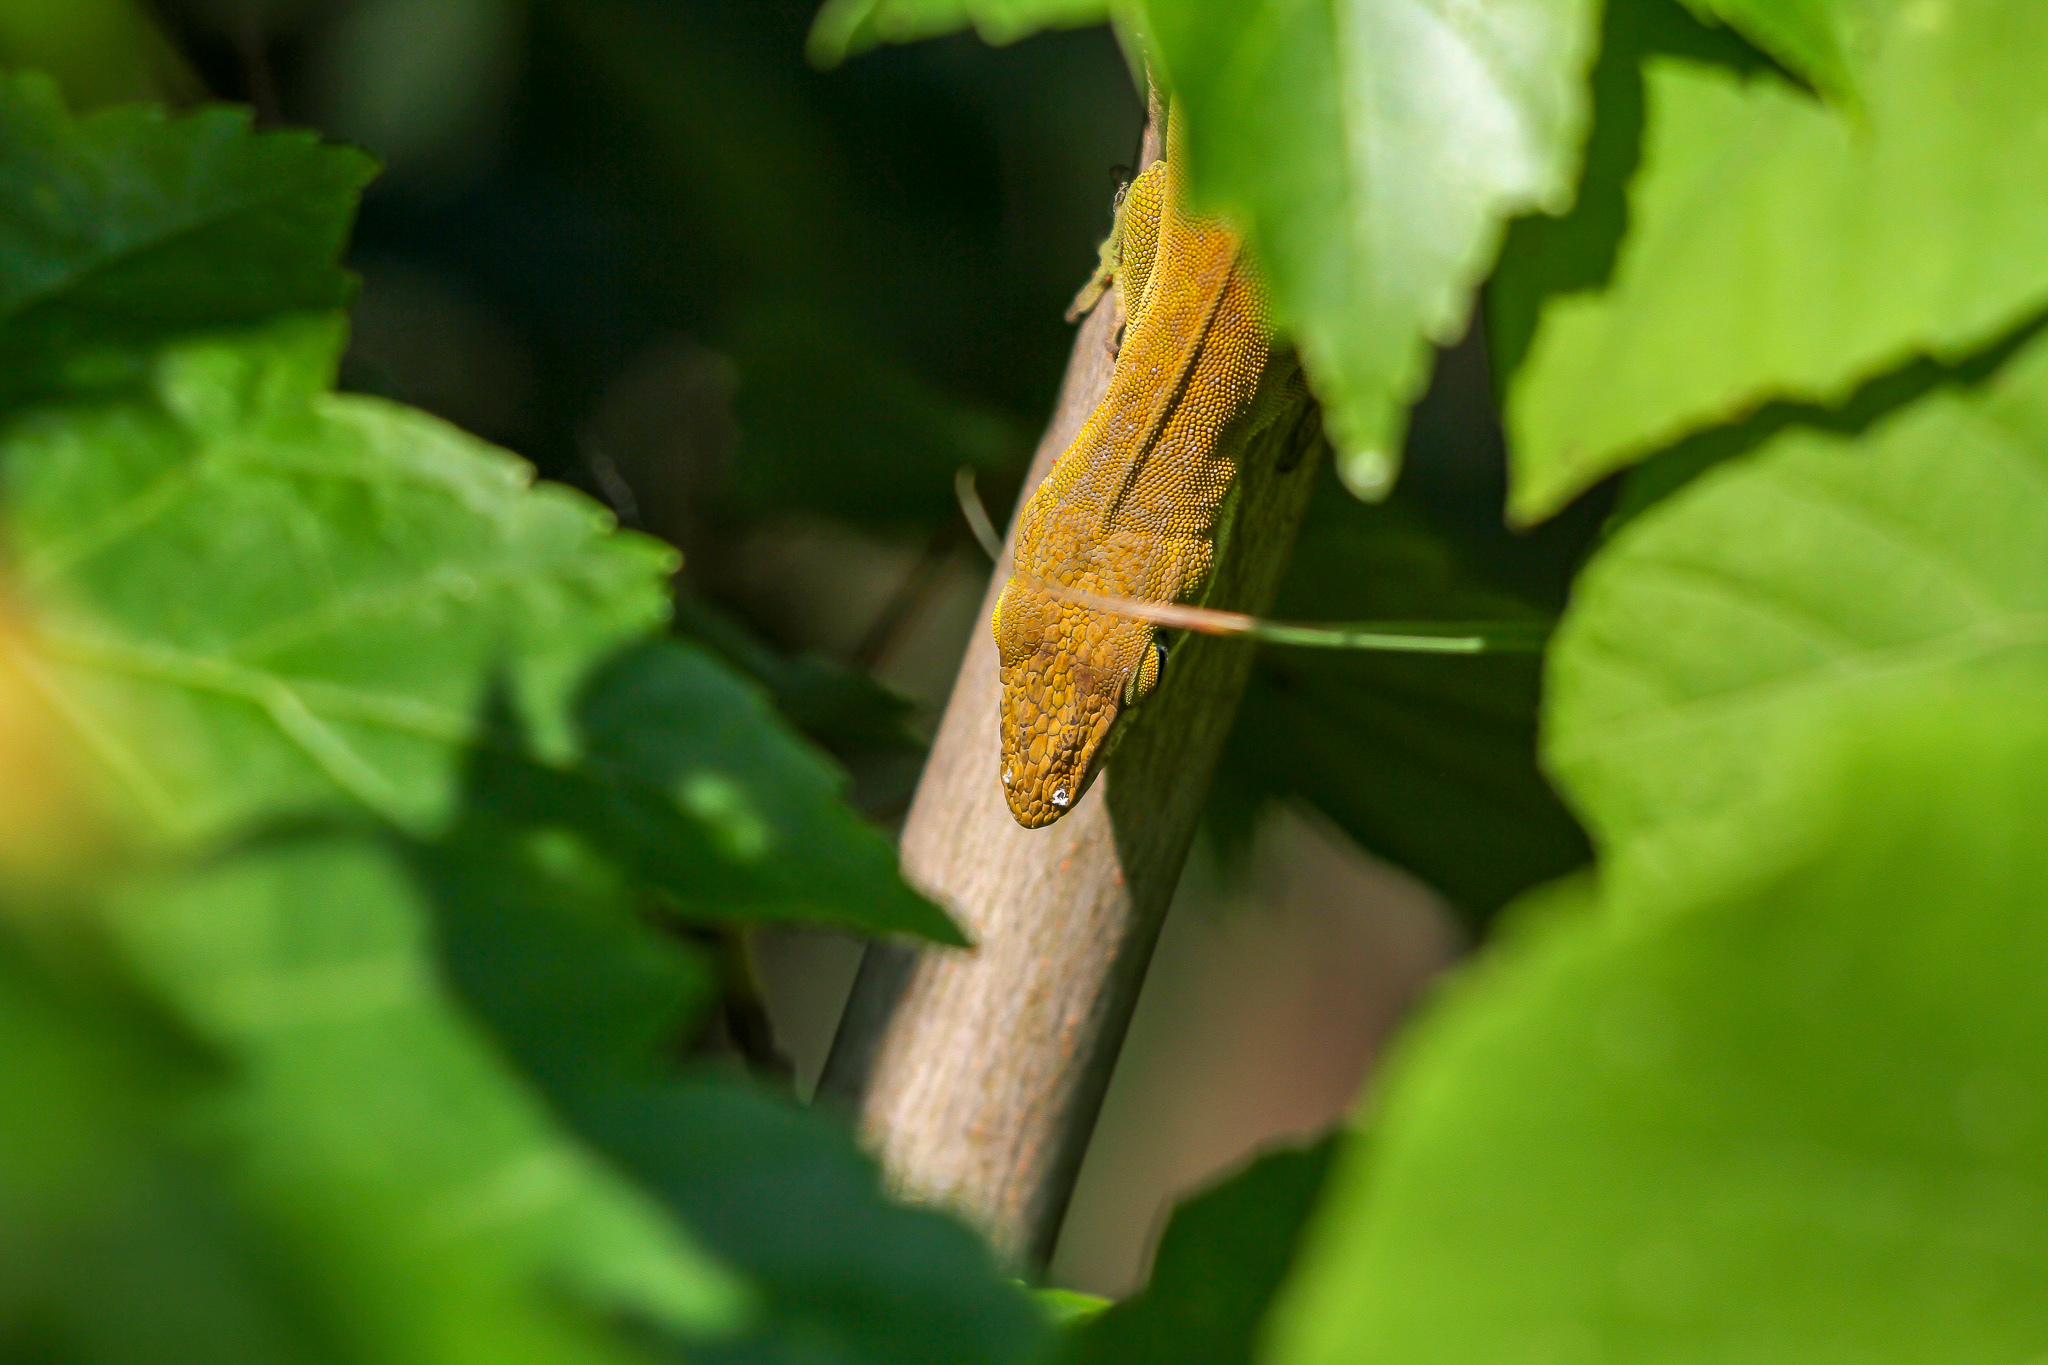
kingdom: Animalia
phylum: Chordata
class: Squamata
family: Dactyloidae
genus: Anolis
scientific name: Anolis carolinensis
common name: Green anole
